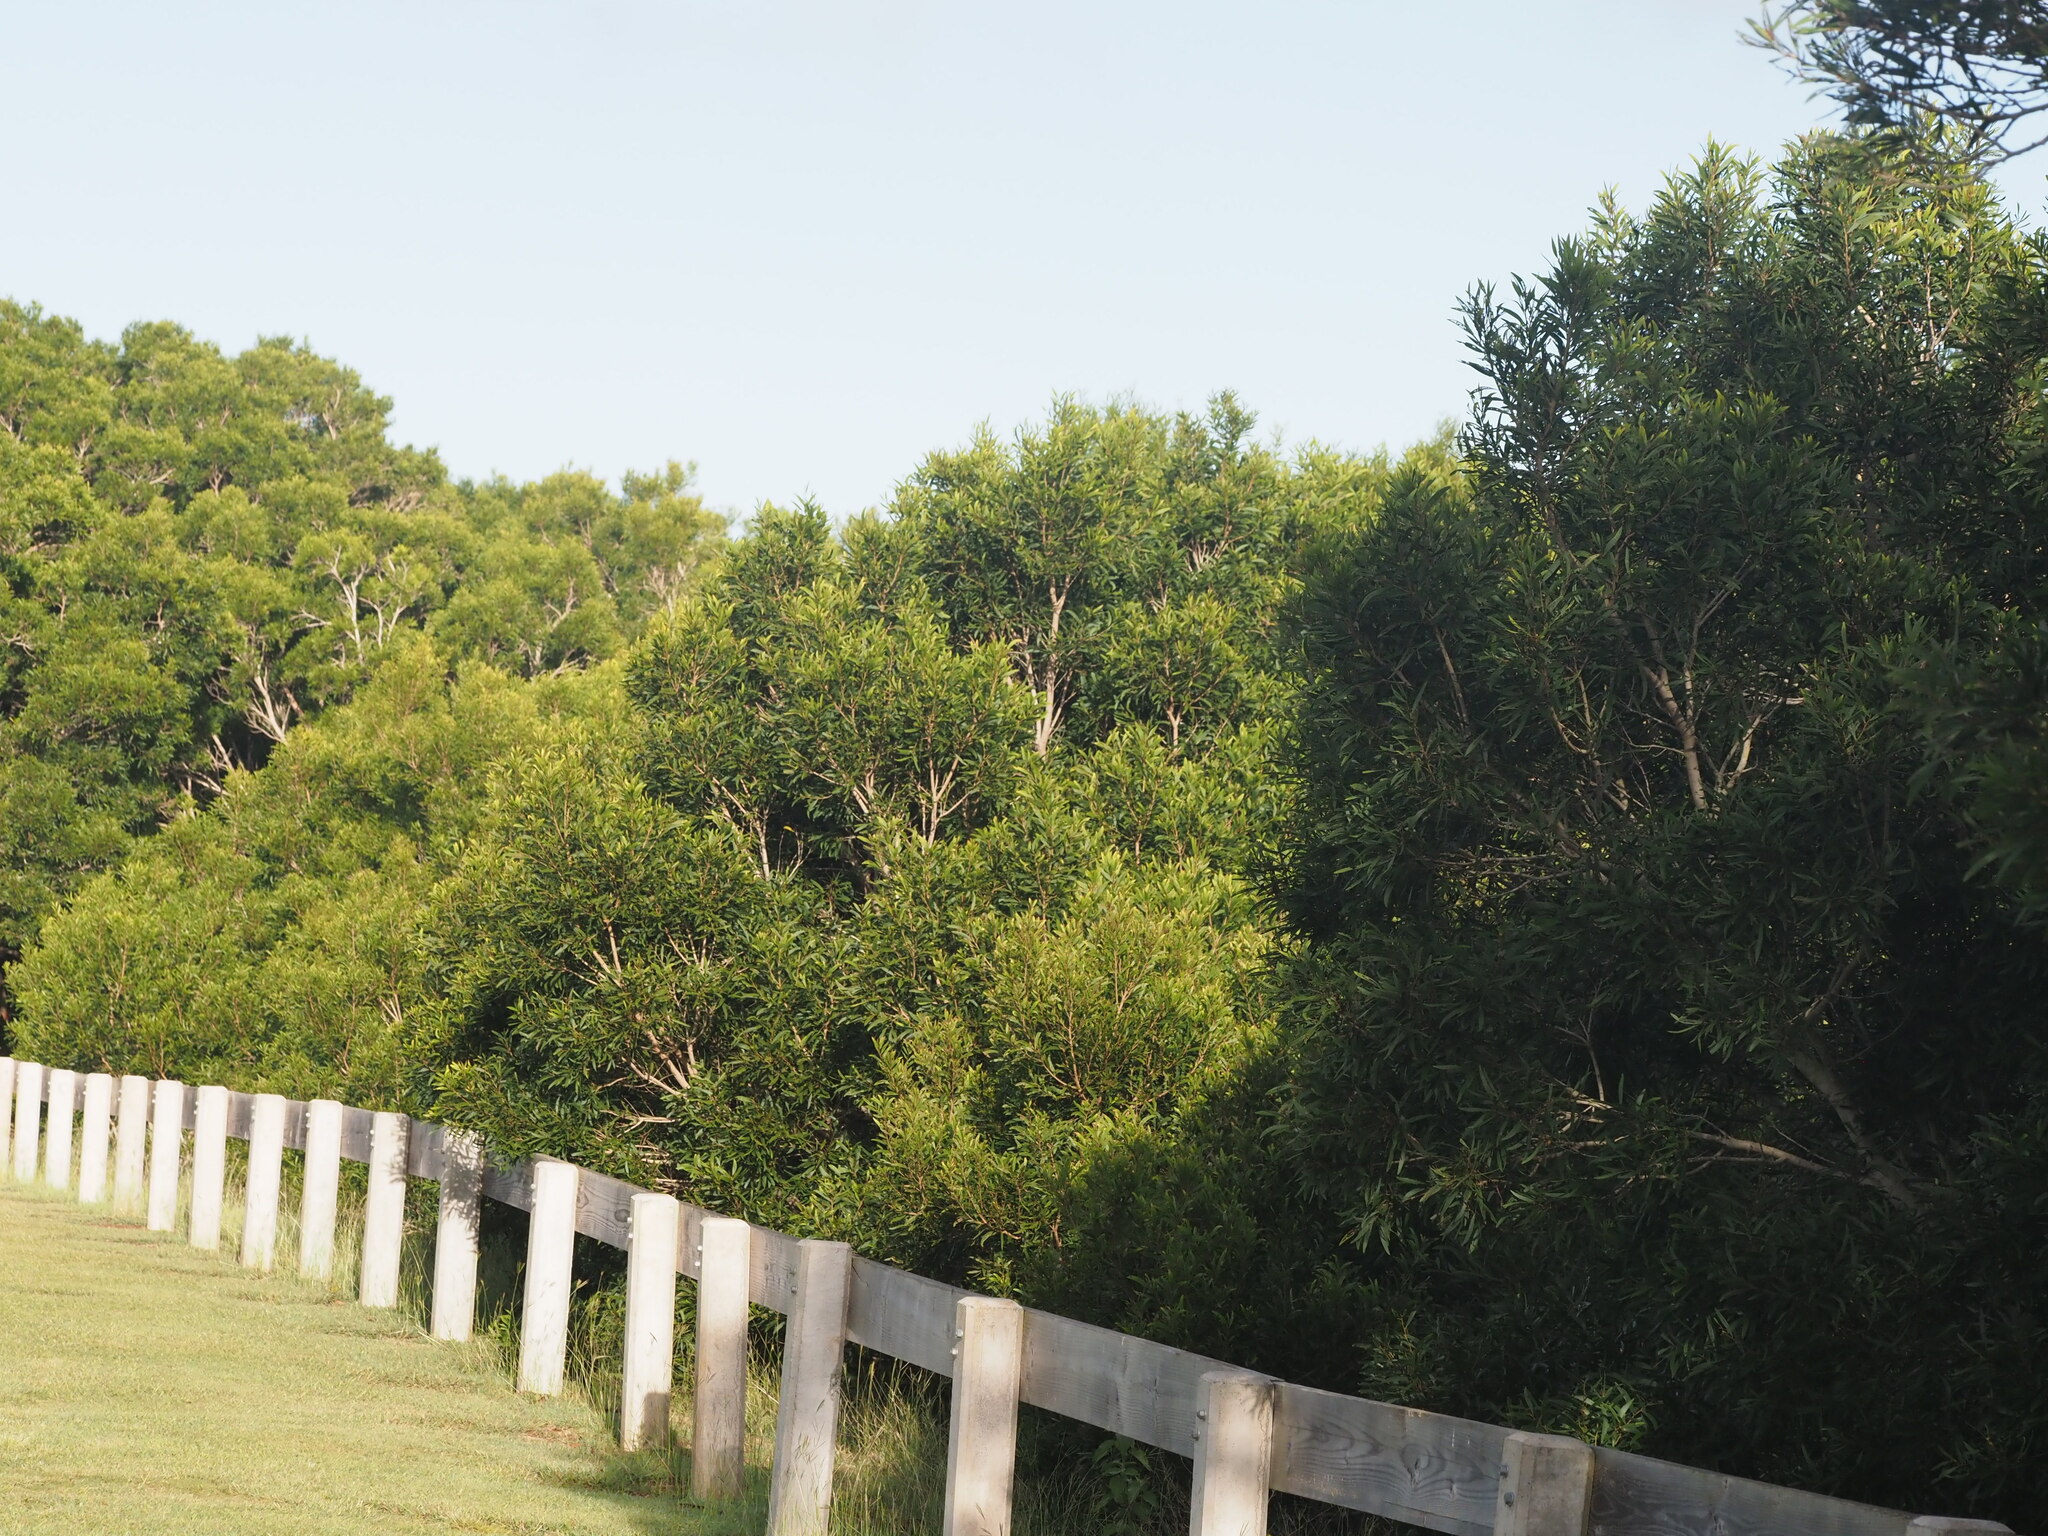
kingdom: Plantae
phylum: Tracheophyta
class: Magnoliopsida
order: Fabales
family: Fabaceae
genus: Acacia
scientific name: Acacia confusa
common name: Formosan koa
